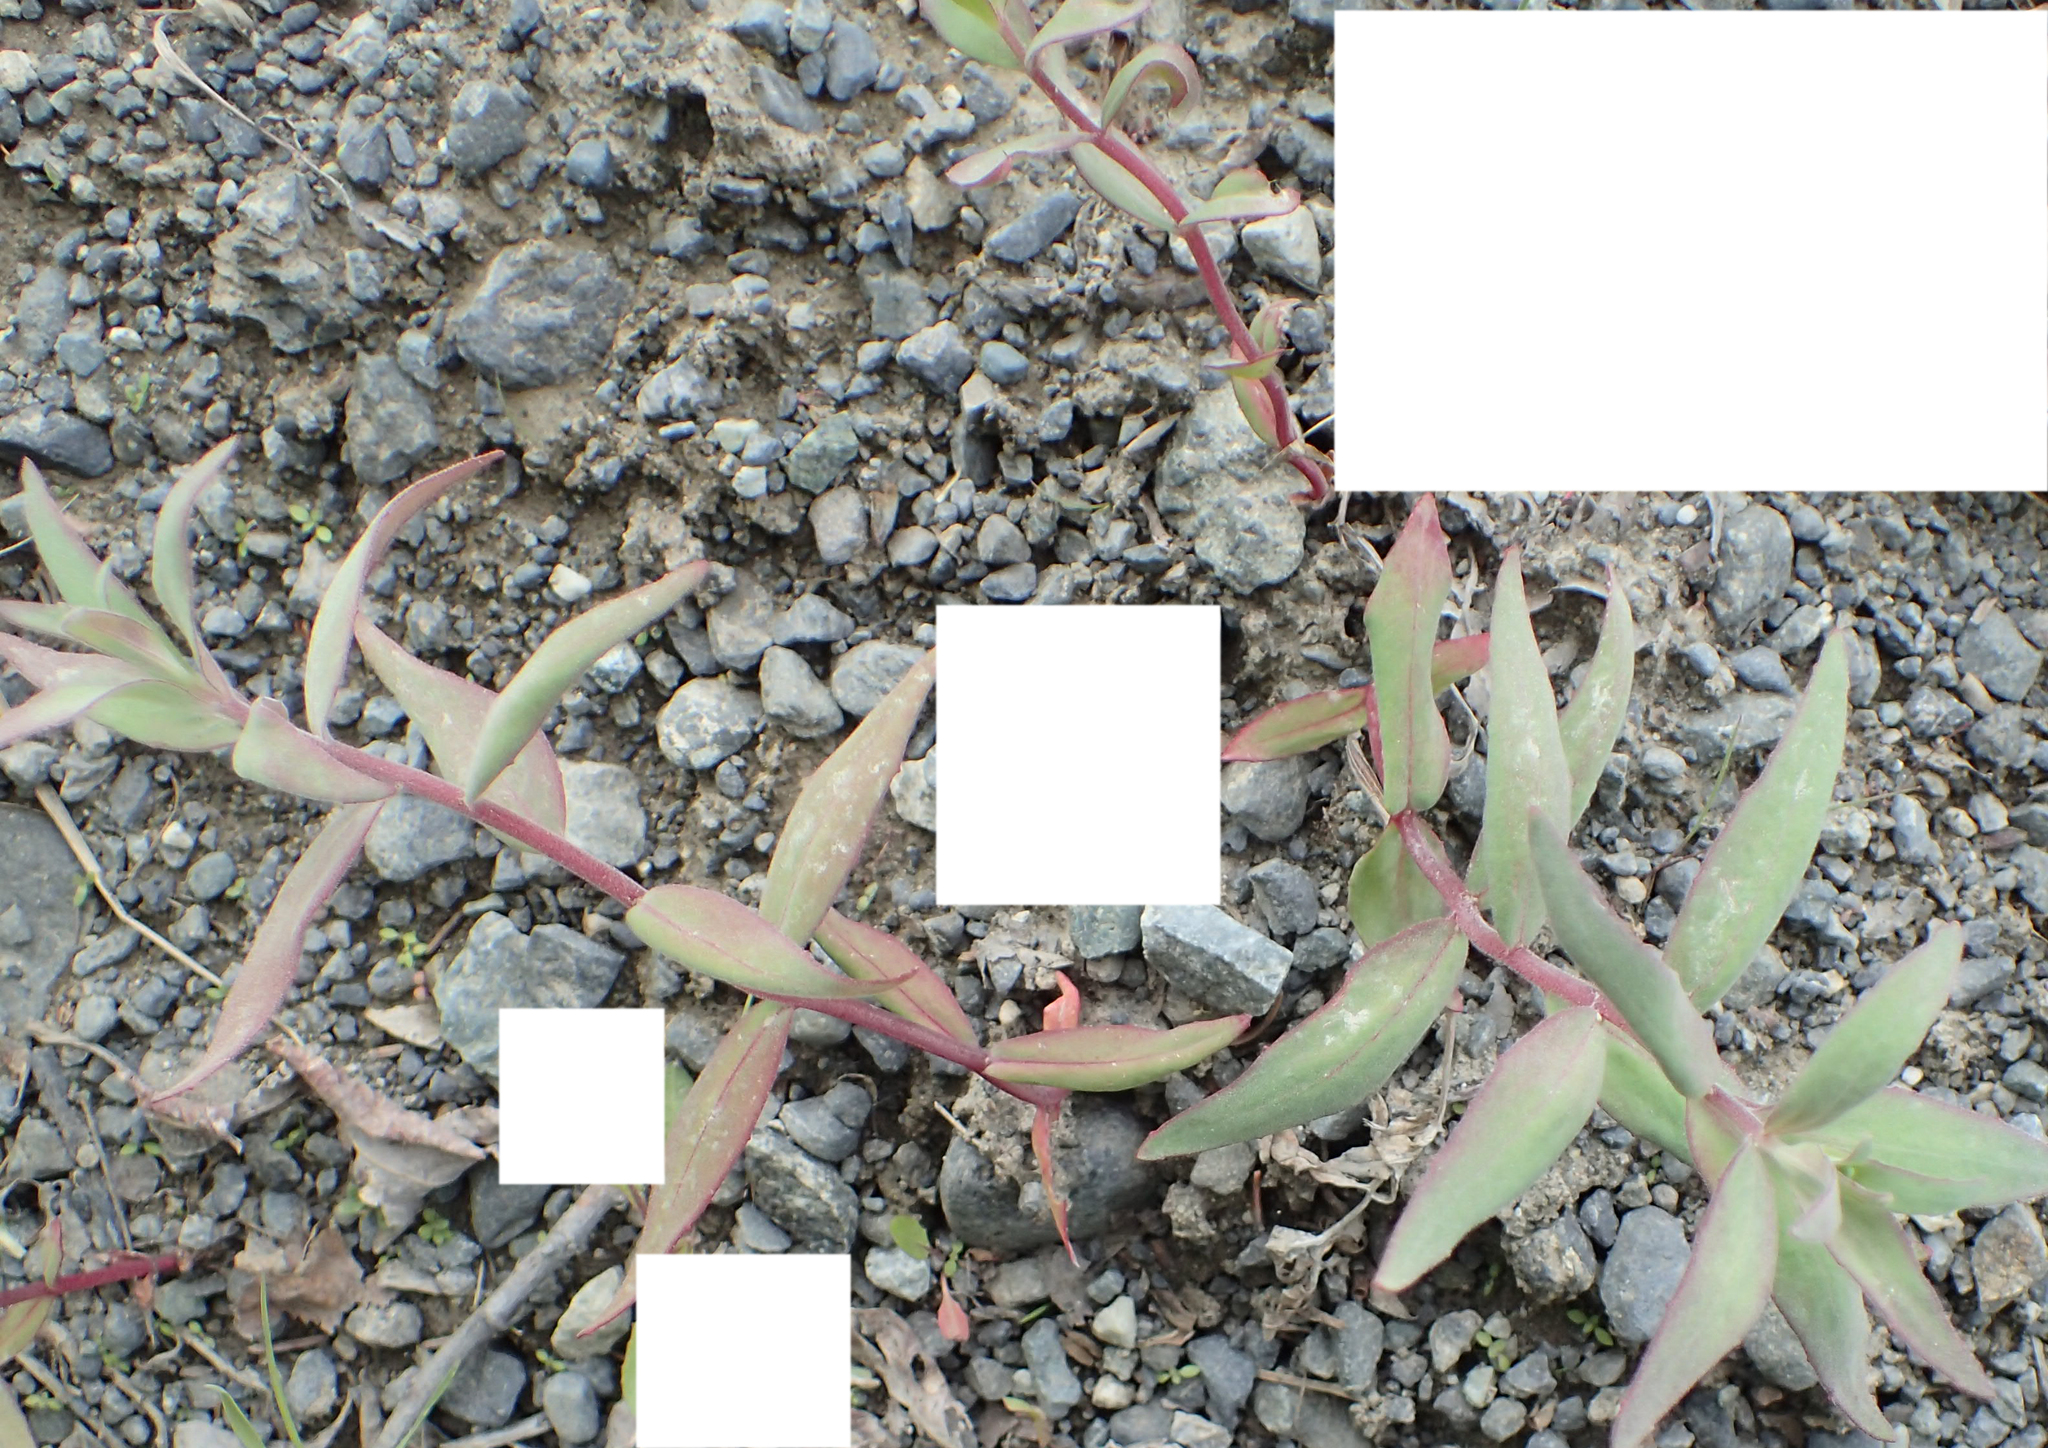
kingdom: Plantae
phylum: Tracheophyta
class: Magnoliopsida
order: Myrtales
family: Onagraceae
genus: Chamaenerion
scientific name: Chamaenerion latifolium
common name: Dwarf fireweed
